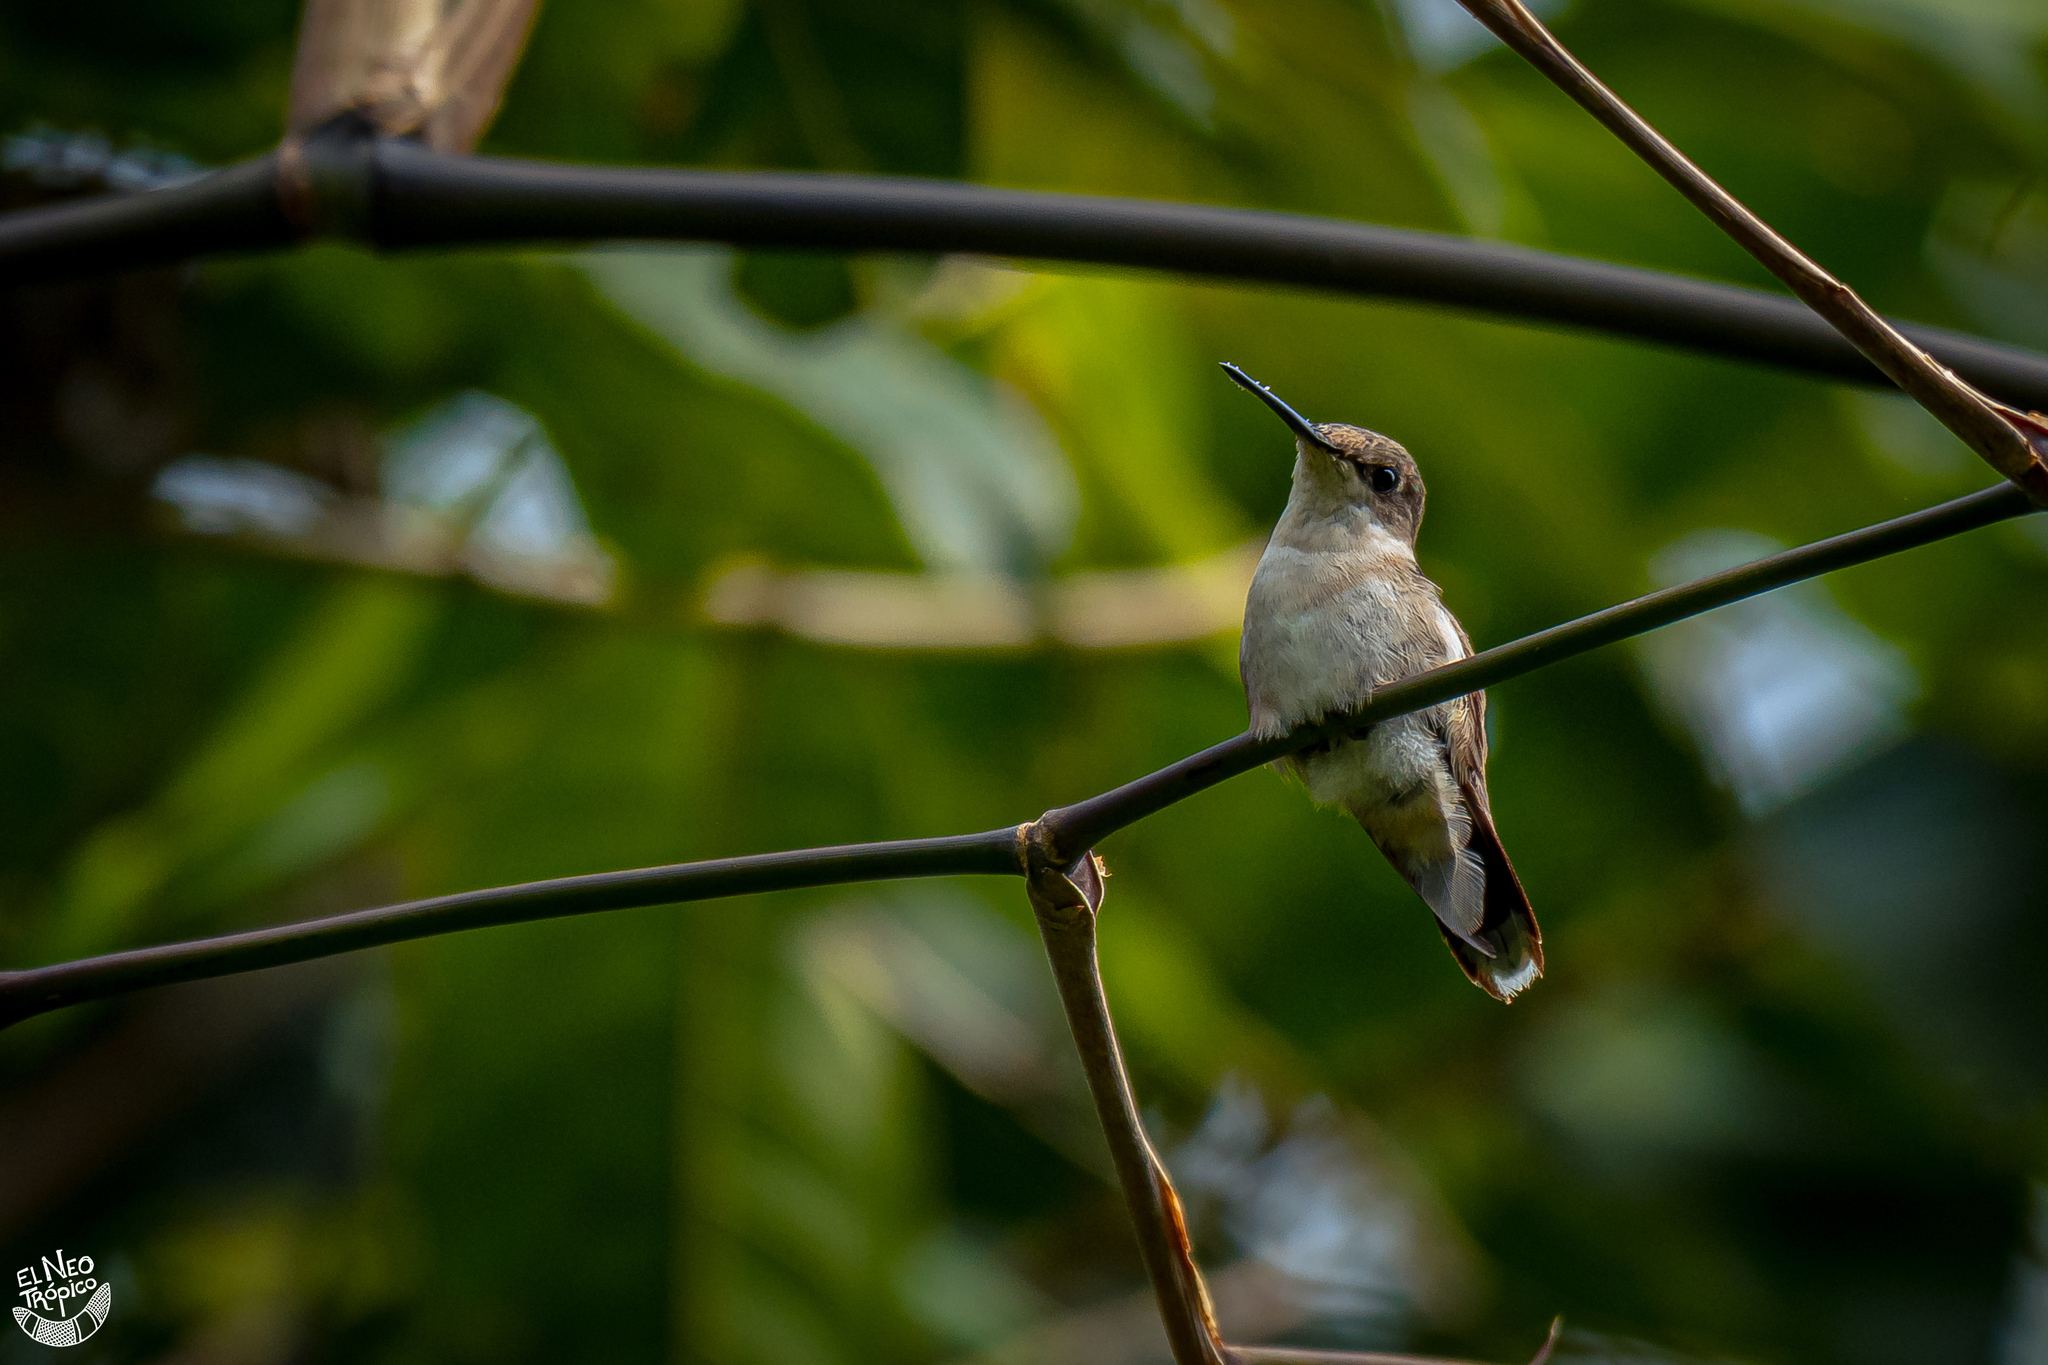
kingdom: Animalia
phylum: Chordata
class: Aves
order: Apodiformes
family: Trochilidae
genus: Archilochus
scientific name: Archilochus colubris
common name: Ruby-throated hummingbird
